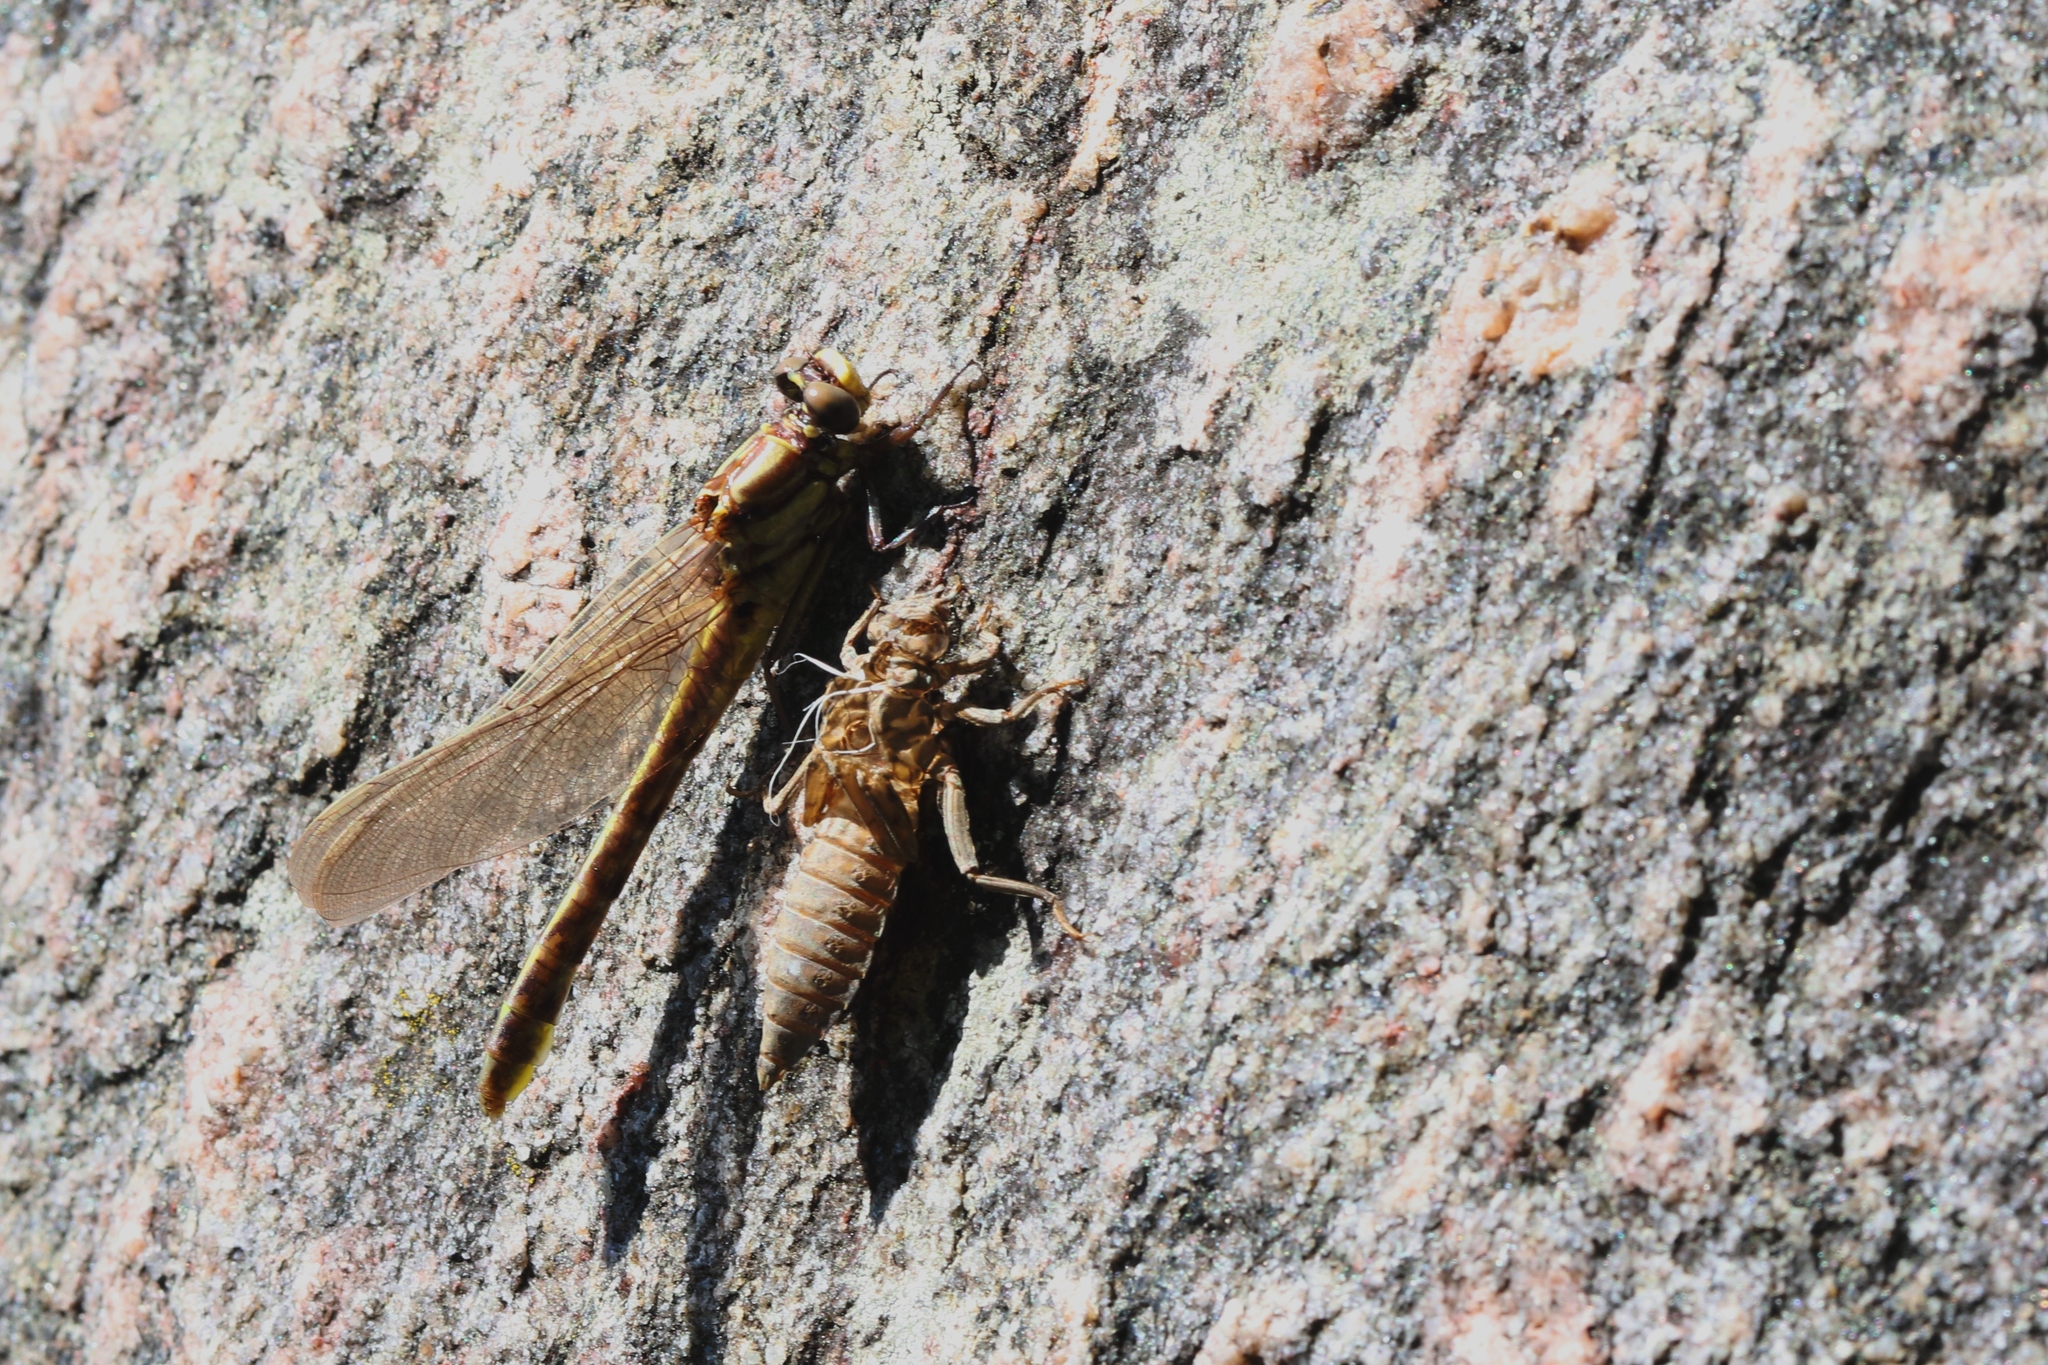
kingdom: Animalia
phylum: Arthropoda
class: Insecta
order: Odonata
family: Gomphidae
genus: Gomphurus
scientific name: Gomphurus fraternus
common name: Midland clubtail
